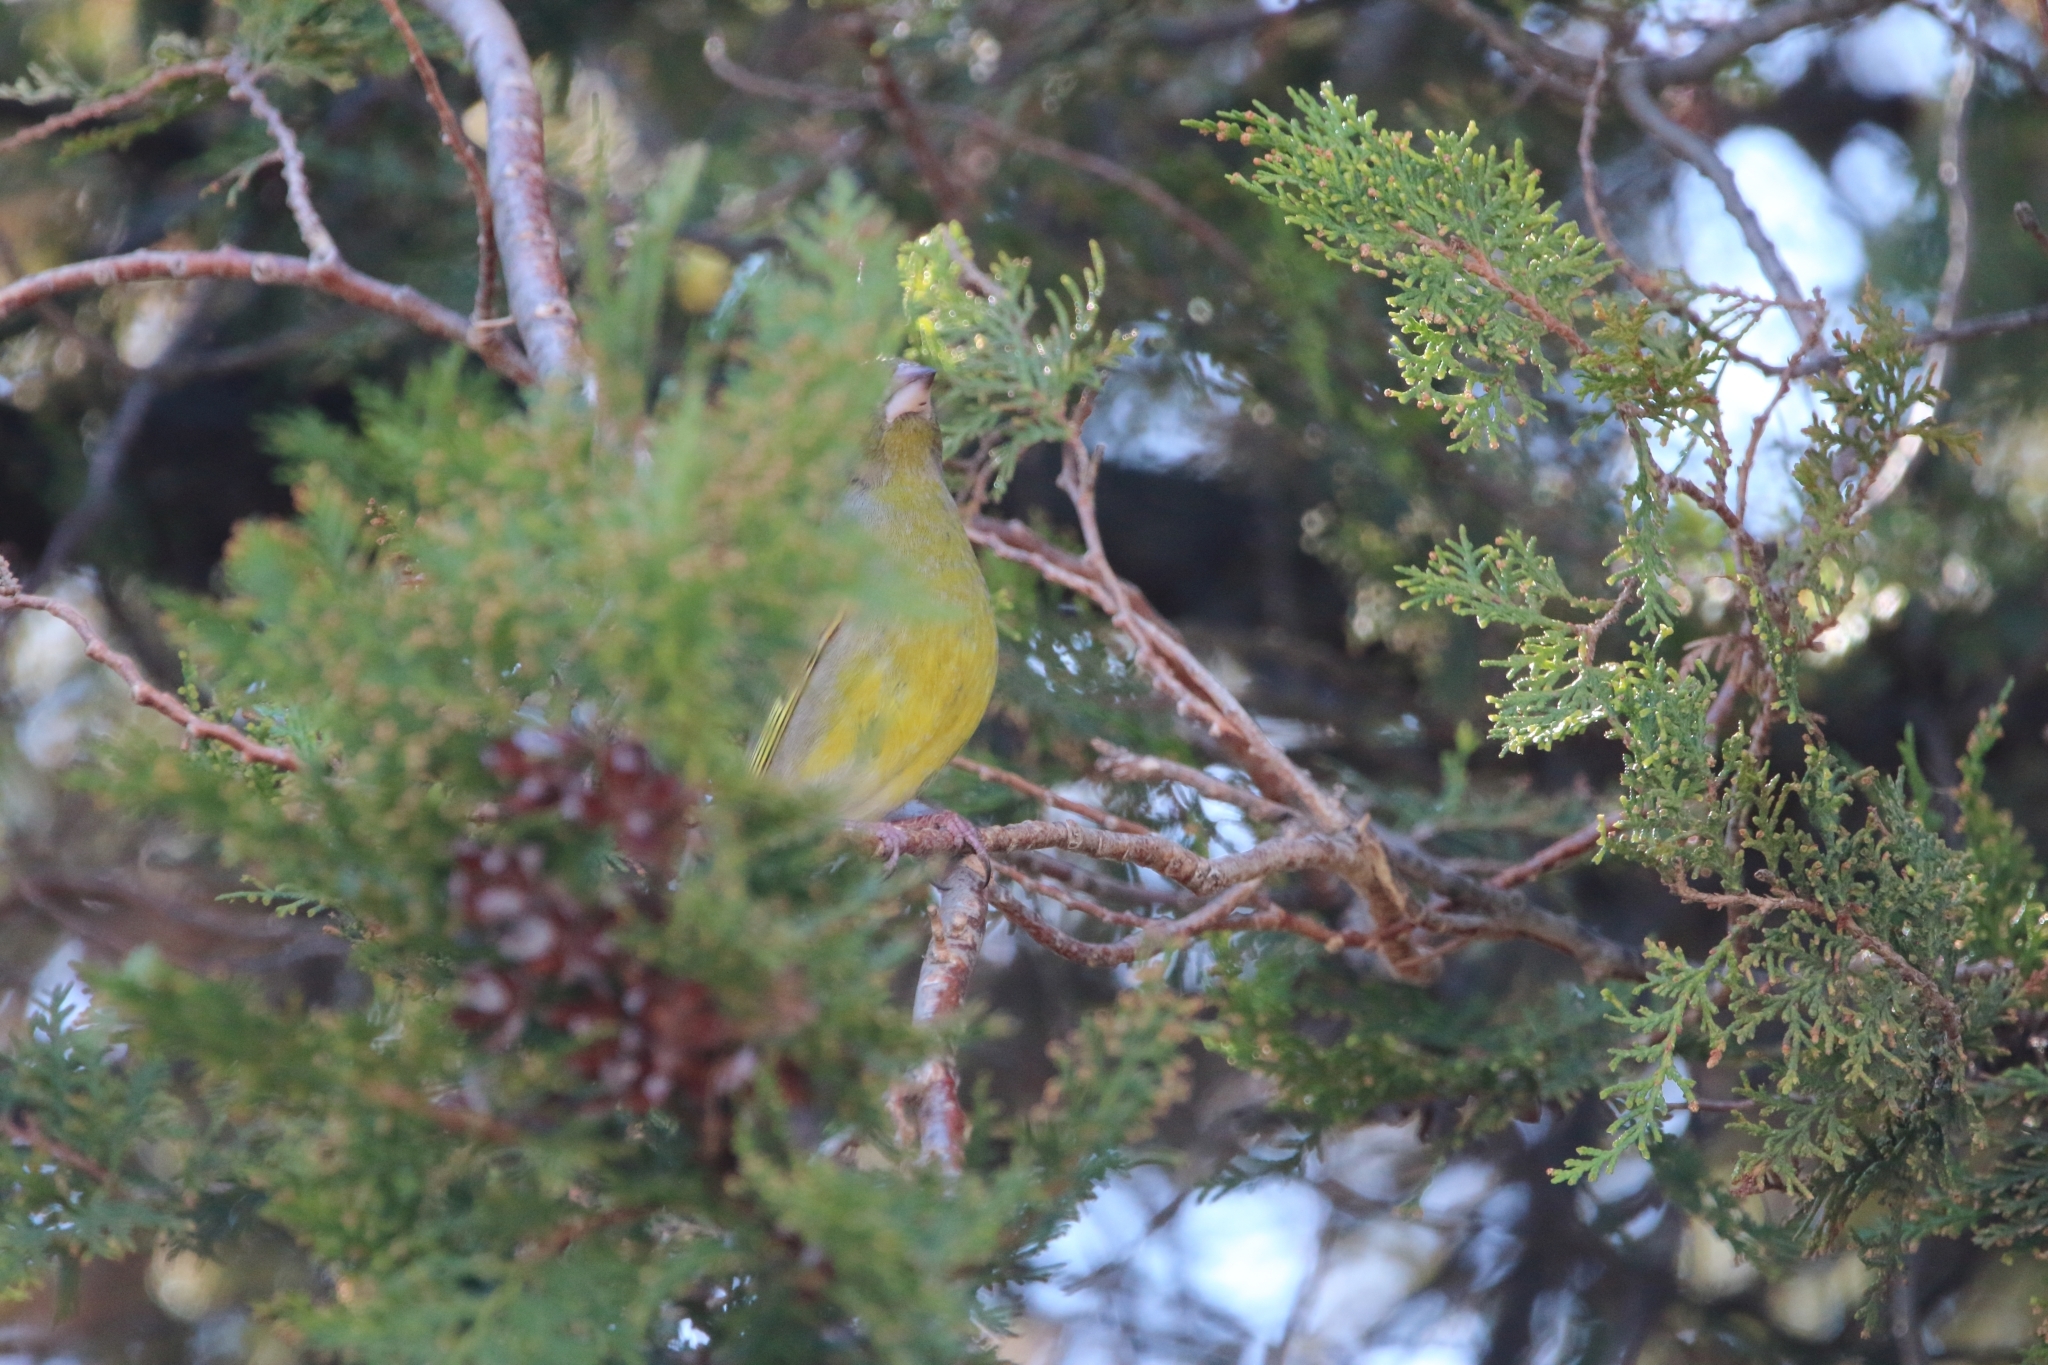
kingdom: Plantae
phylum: Tracheophyta
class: Liliopsida
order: Poales
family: Poaceae
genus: Chloris
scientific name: Chloris chloris
